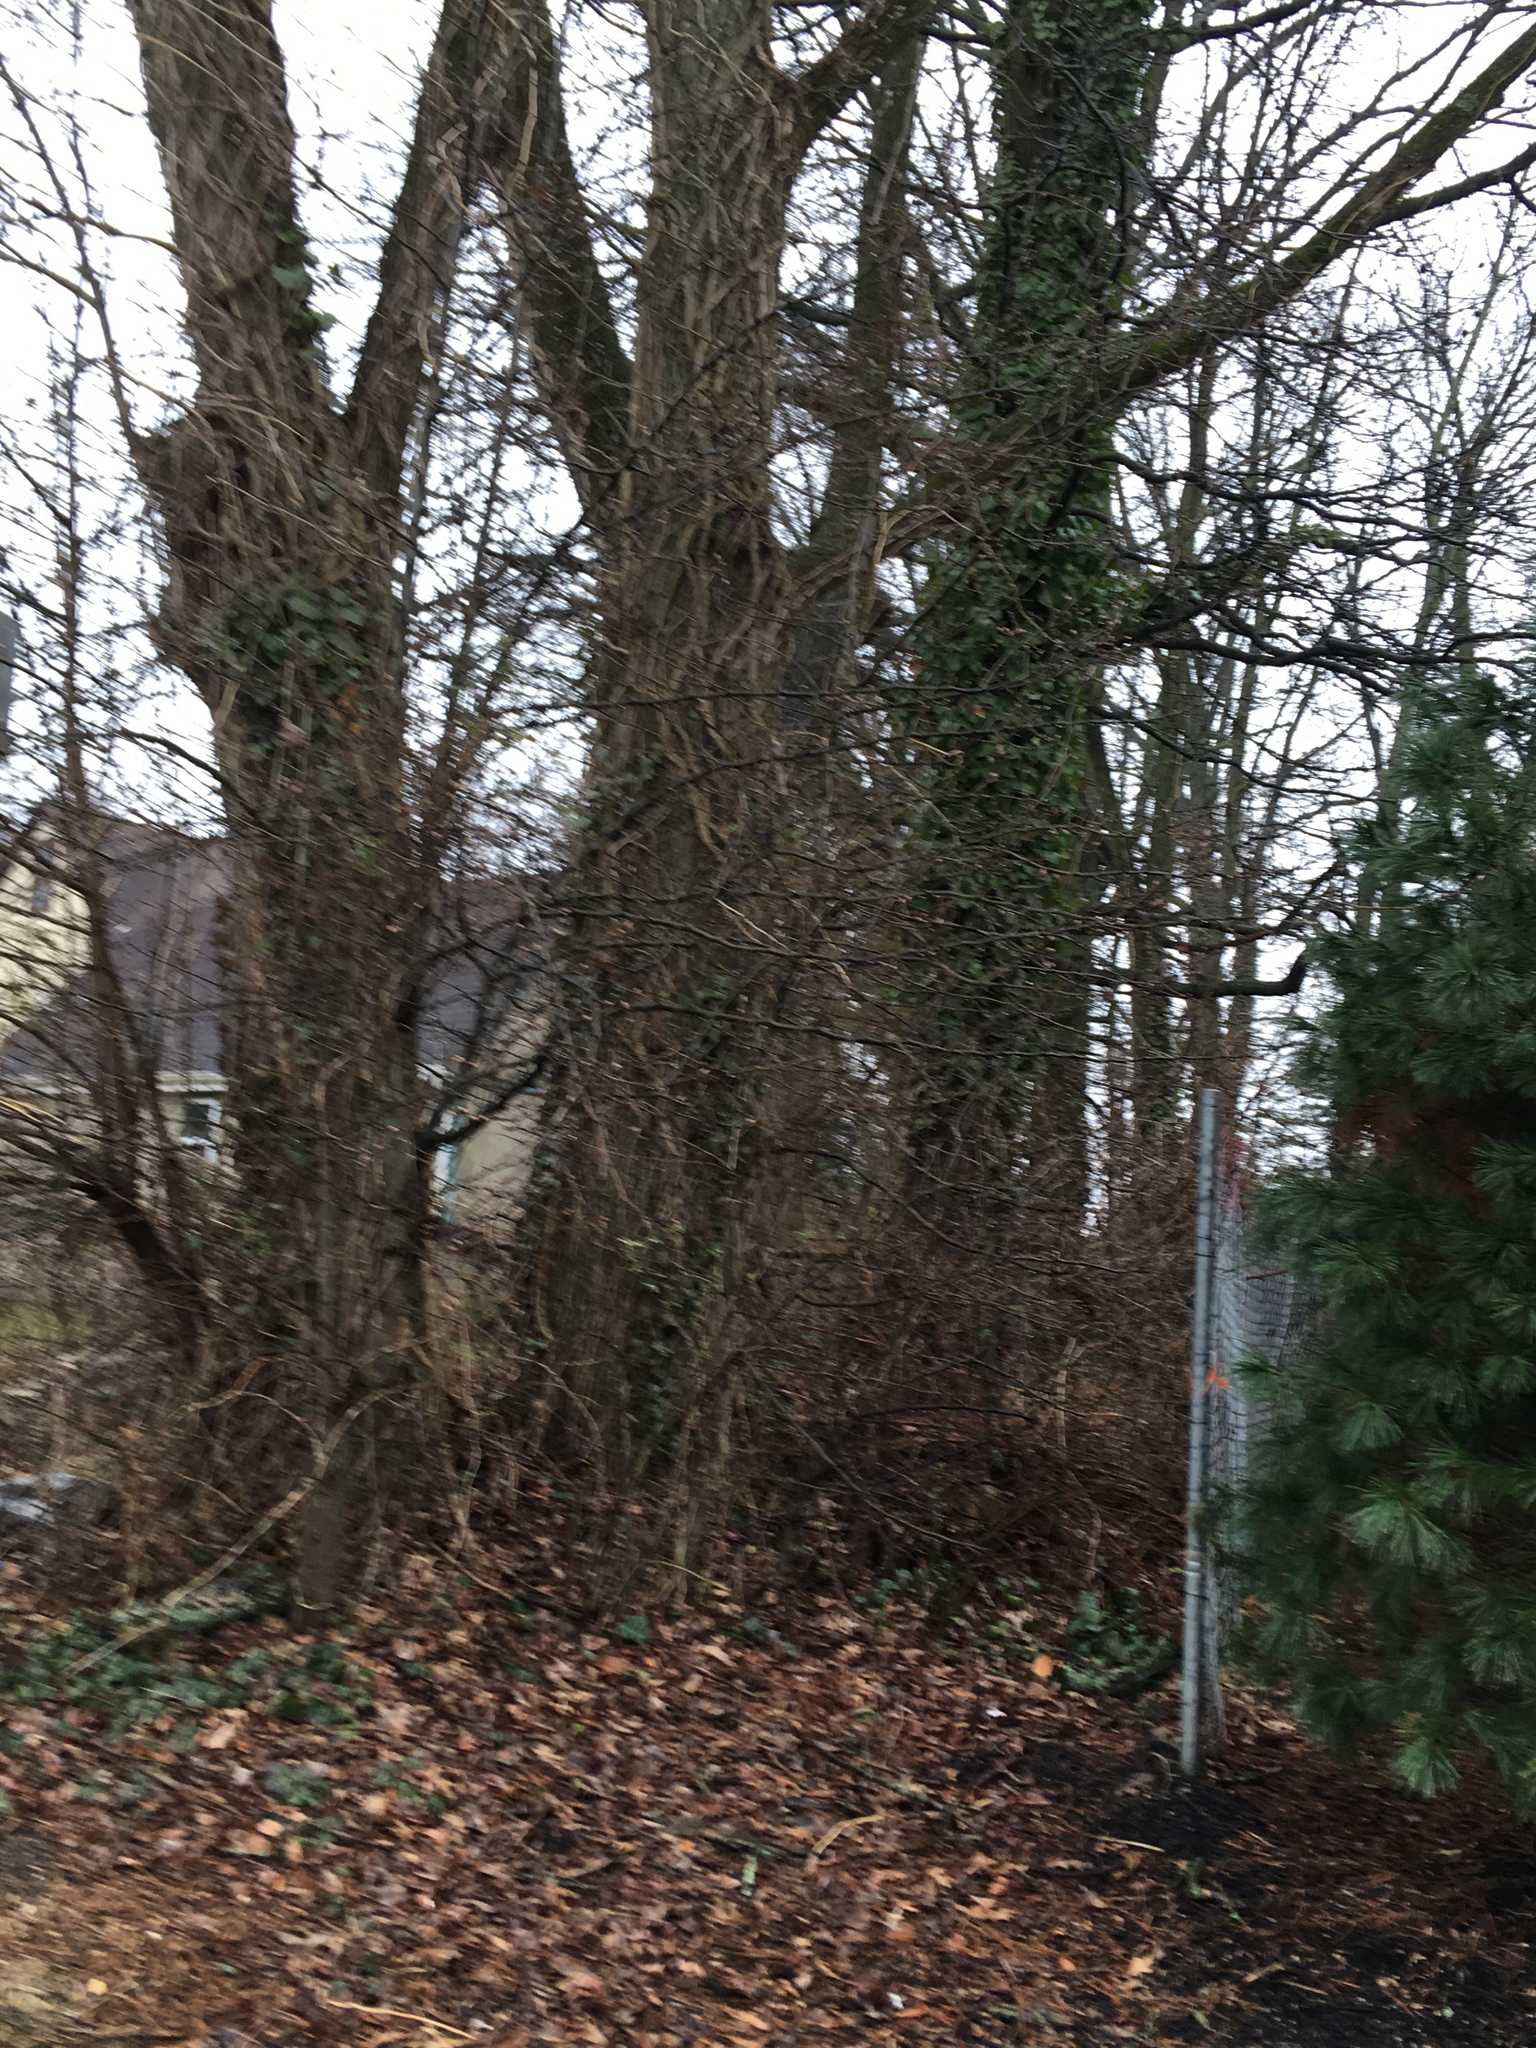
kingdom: Plantae
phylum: Tracheophyta
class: Magnoliopsida
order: Apiales
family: Araliaceae
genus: Hedera
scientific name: Hedera helix
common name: Ivy
